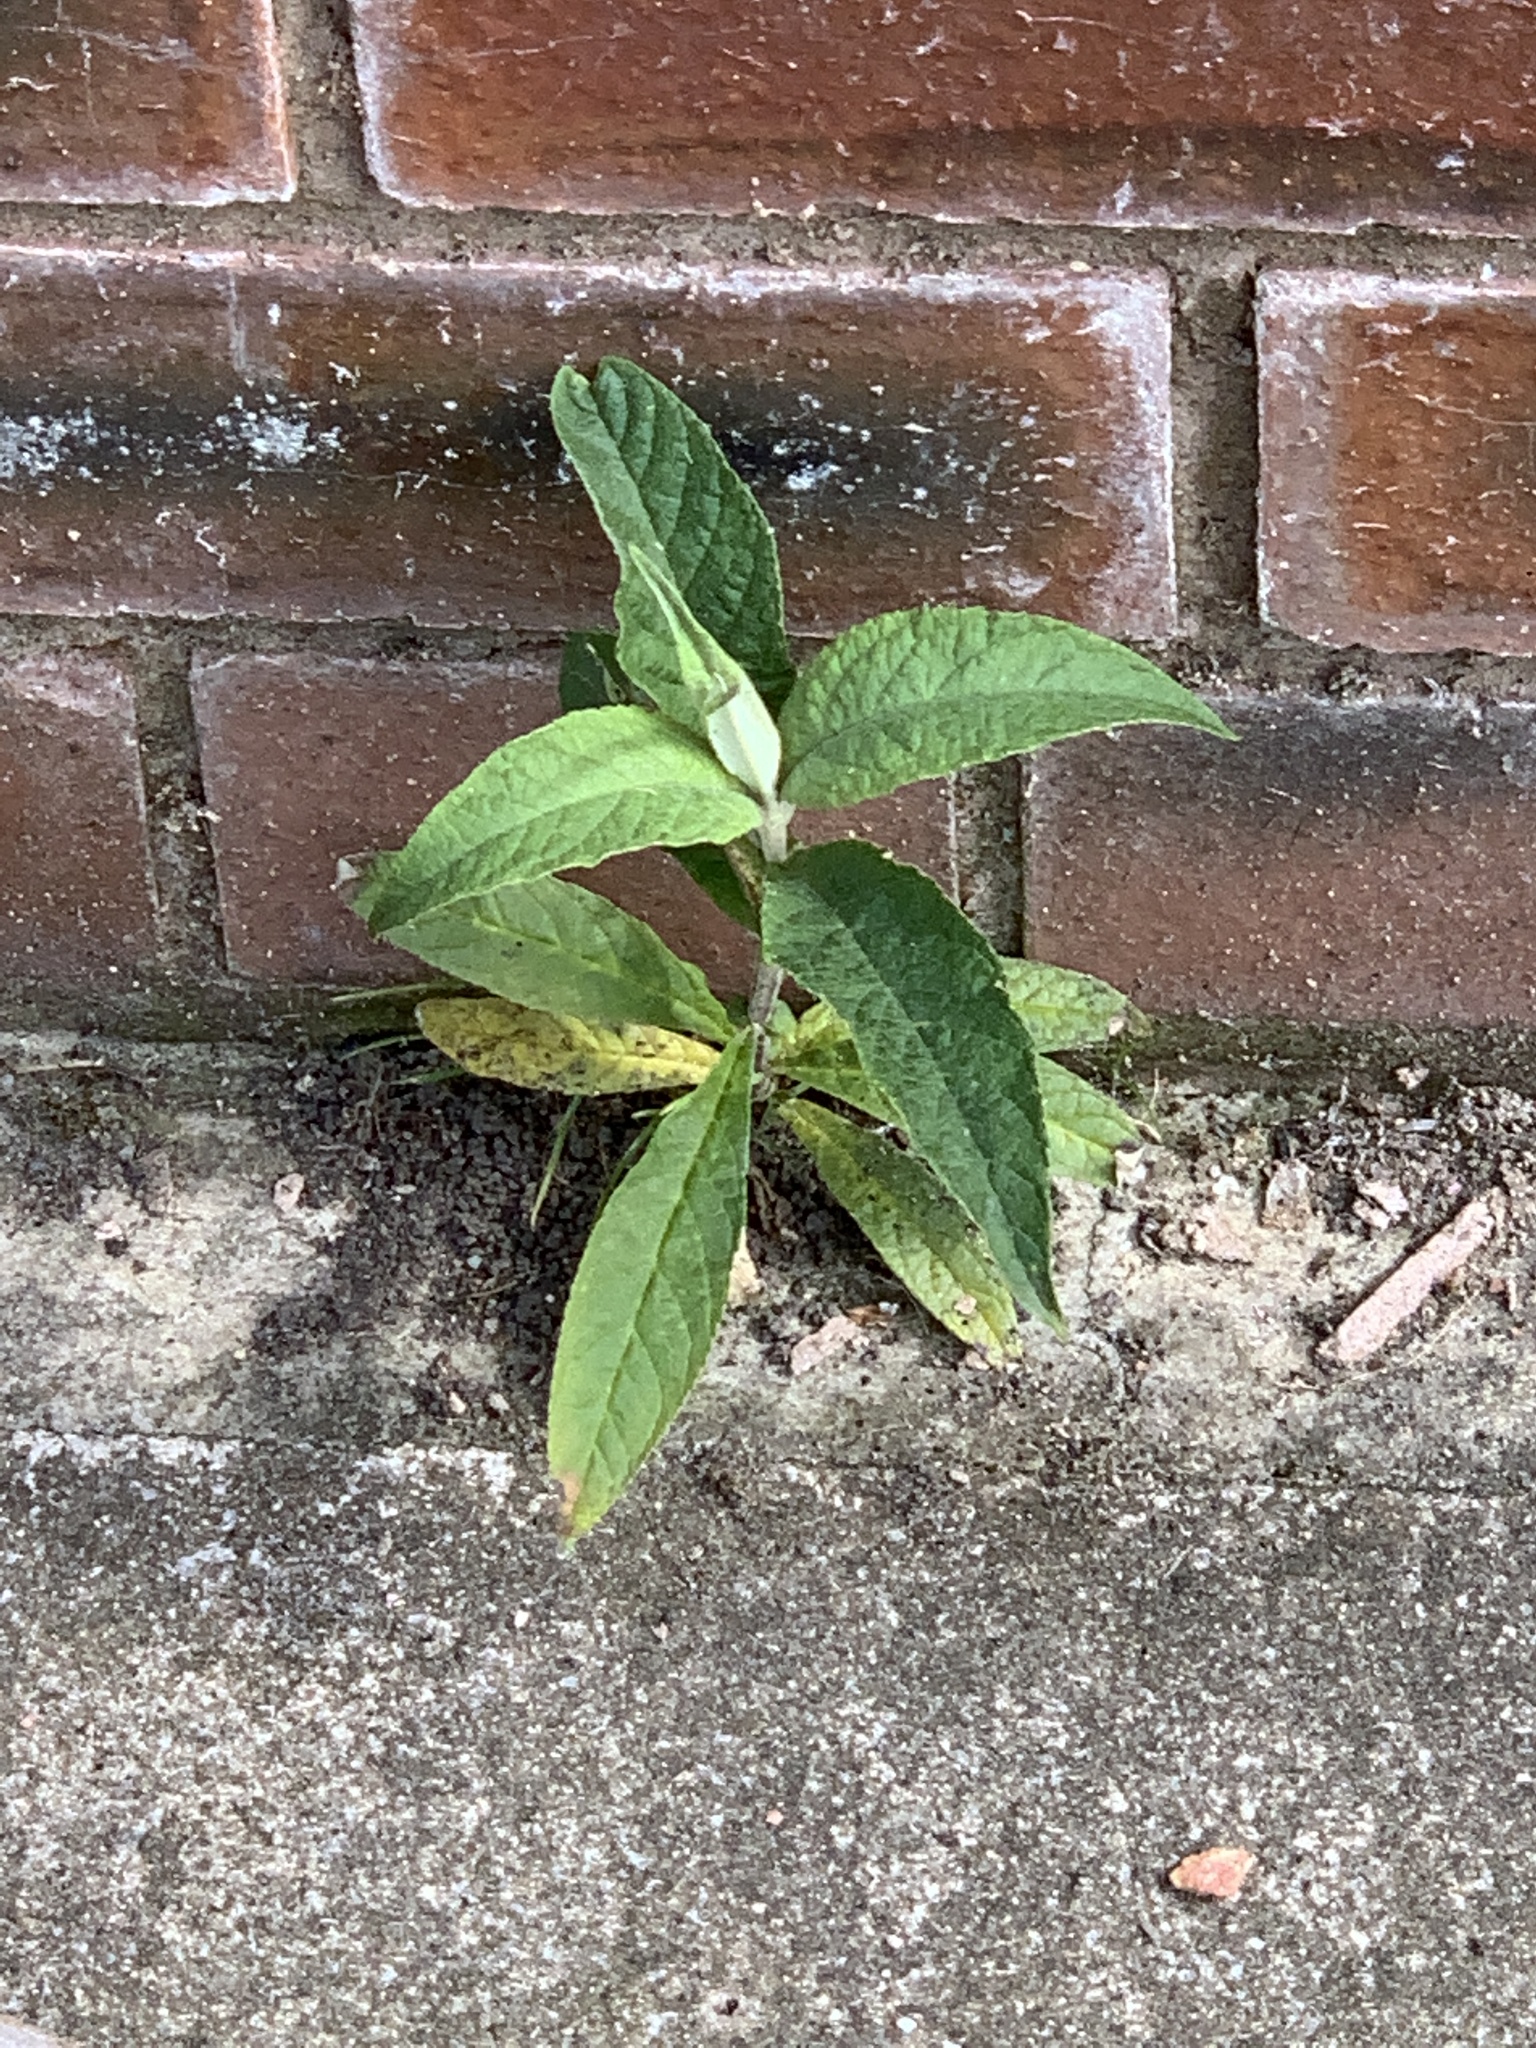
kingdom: Plantae
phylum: Tracheophyta
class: Magnoliopsida
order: Lamiales
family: Scrophulariaceae
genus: Buddleja
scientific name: Buddleja davidii
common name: Butterfly-bush
